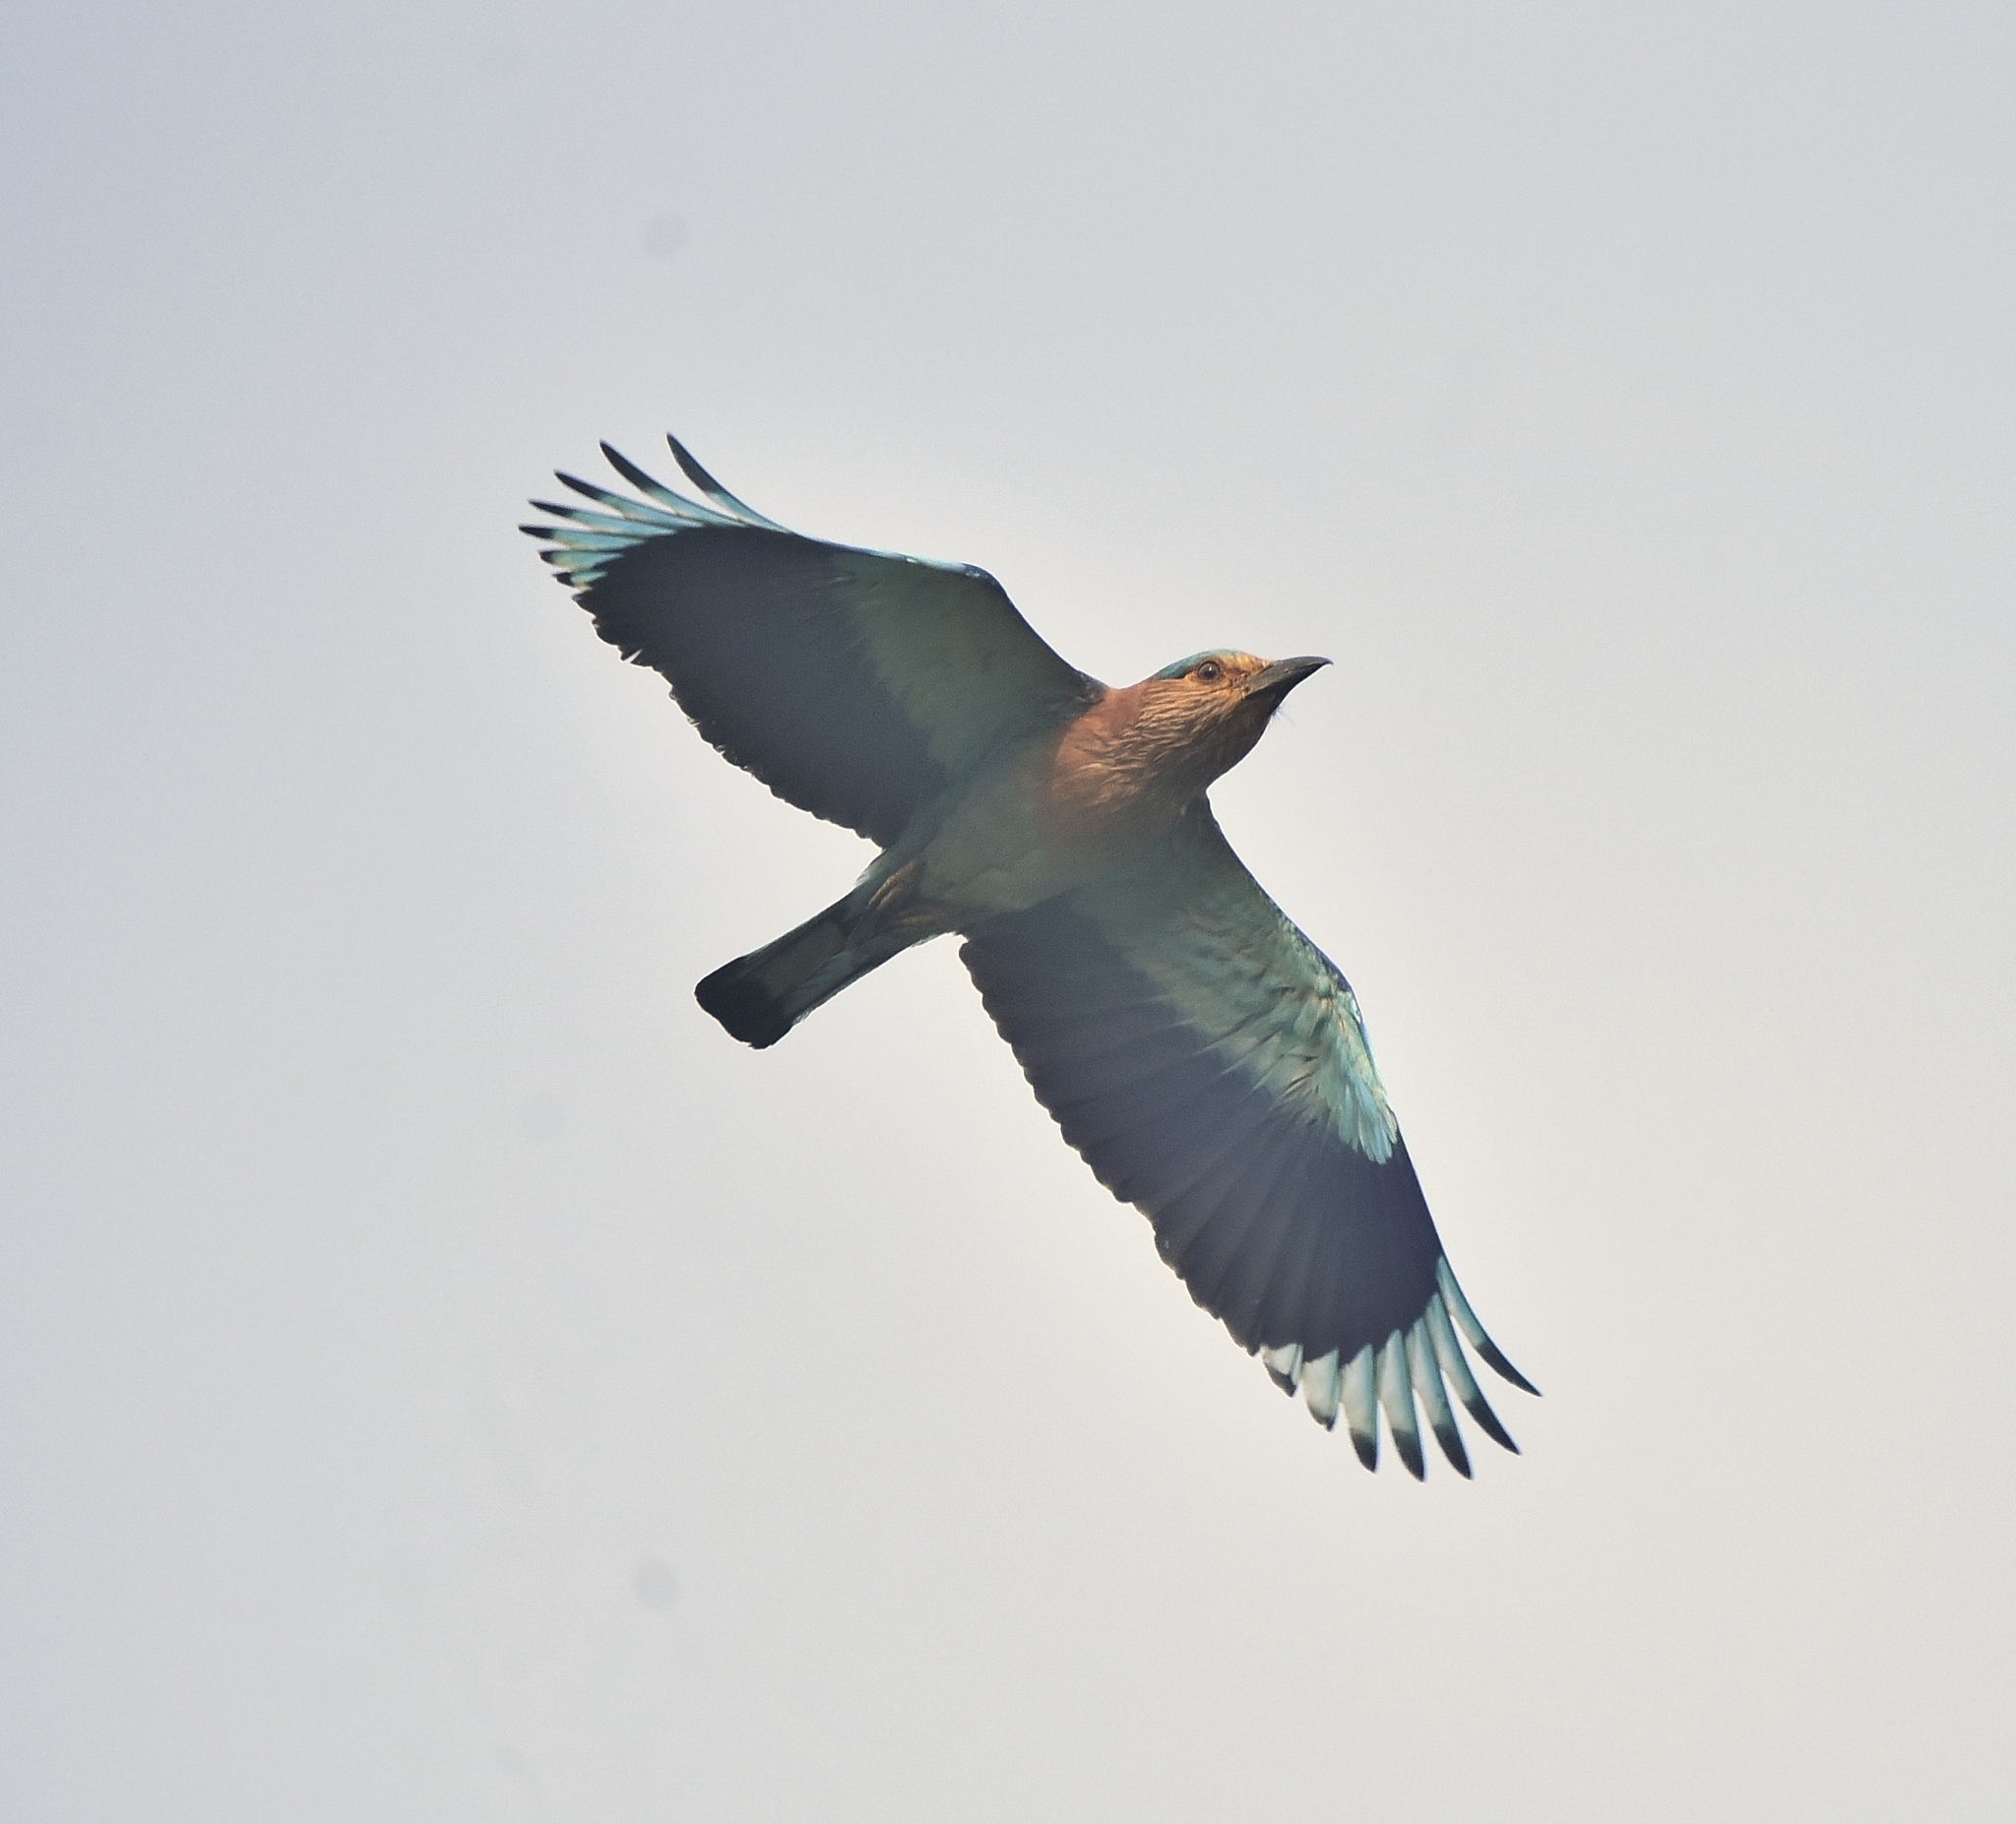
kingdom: Animalia
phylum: Chordata
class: Aves
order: Coraciiformes
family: Coraciidae
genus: Coracias
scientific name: Coracias benghalensis
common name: Indian roller
